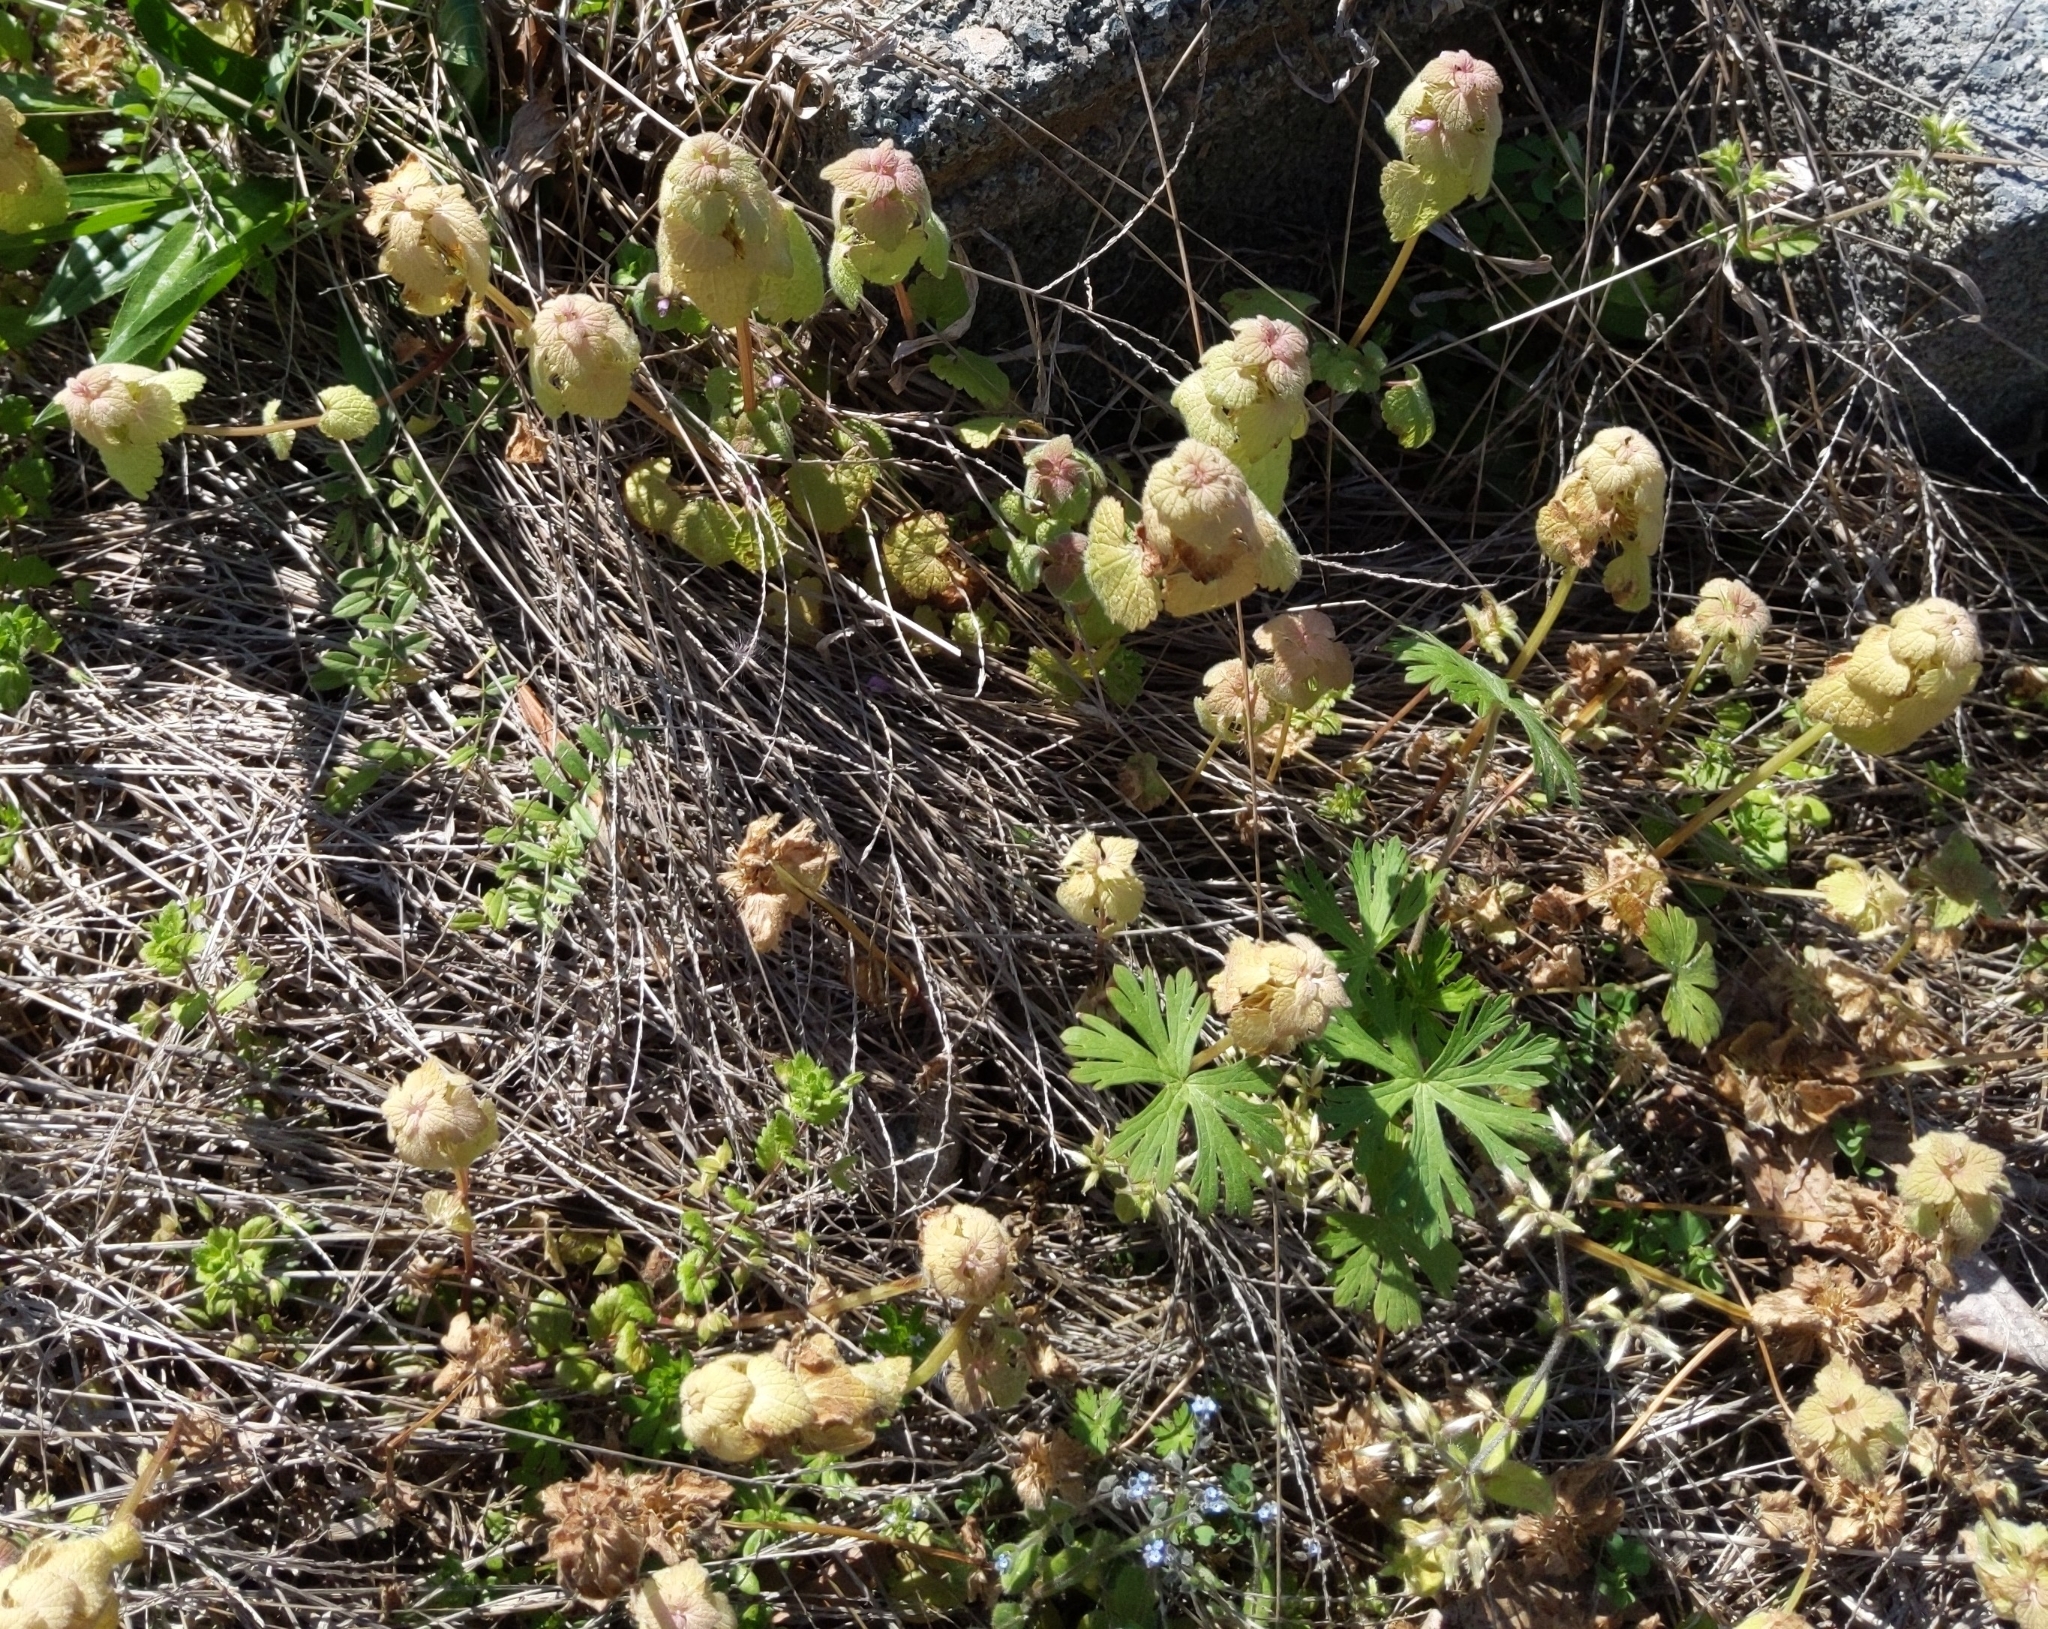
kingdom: Plantae
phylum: Tracheophyta
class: Magnoliopsida
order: Lamiales
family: Lamiaceae
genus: Lamium
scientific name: Lamium purpureum
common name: Red dead-nettle
